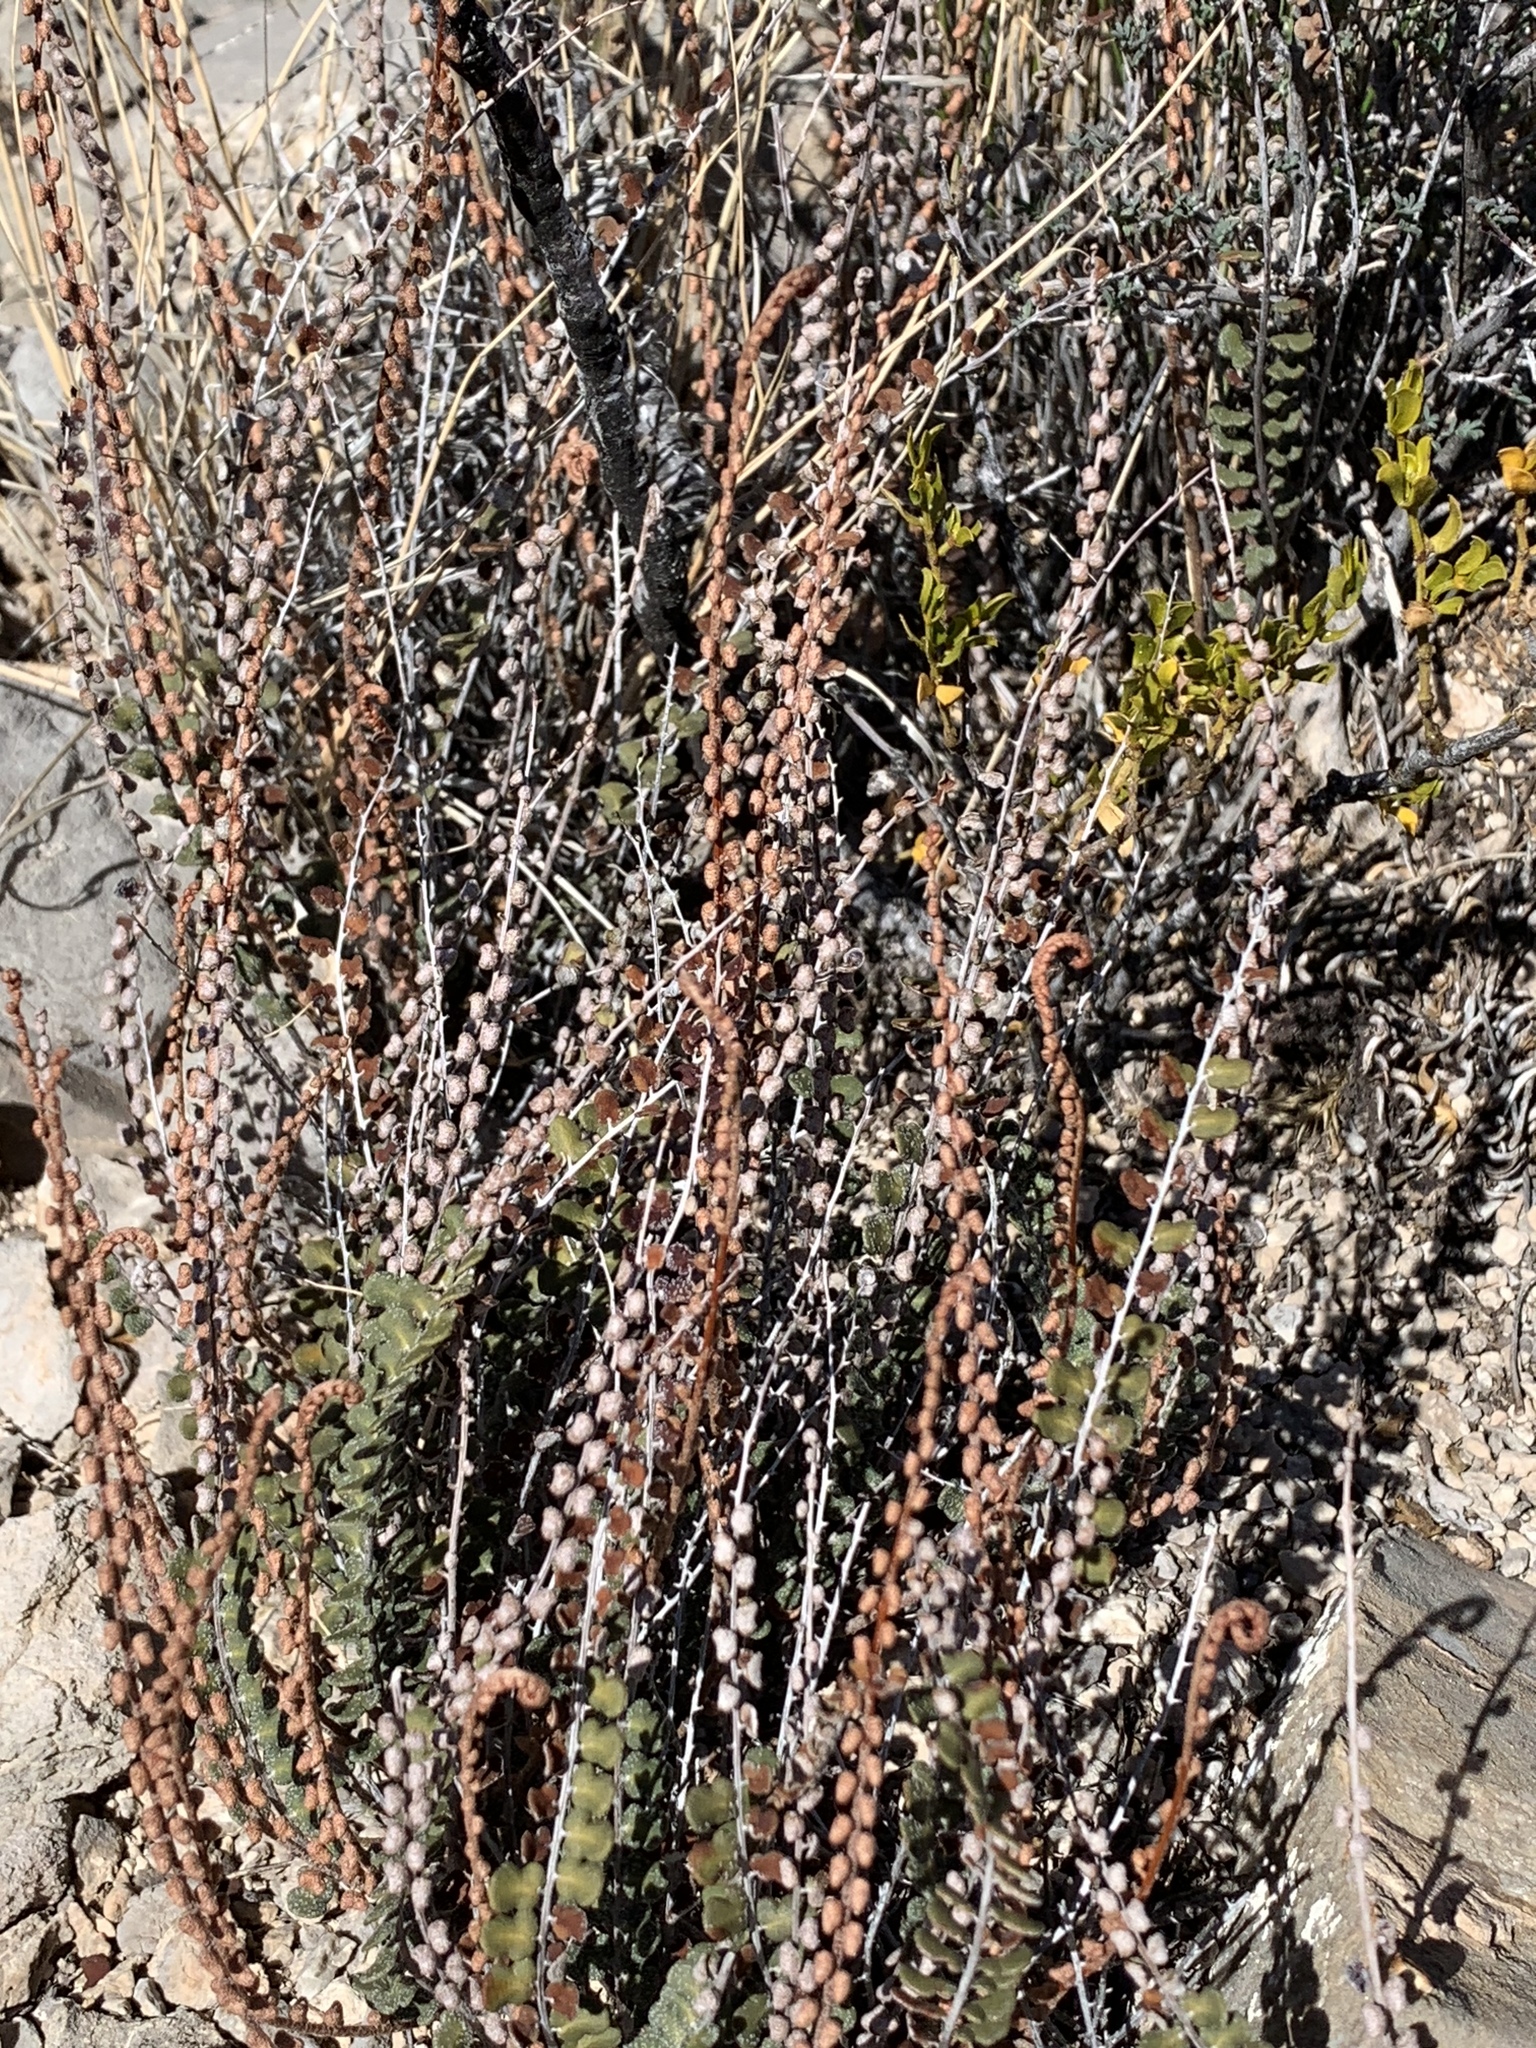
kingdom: Plantae
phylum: Tracheophyta
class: Polypodiopsida
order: Polypodiales
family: Pteridaceae
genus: Astrolepis
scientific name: Astrolepis cochisensis
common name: Scaly cloak fern
